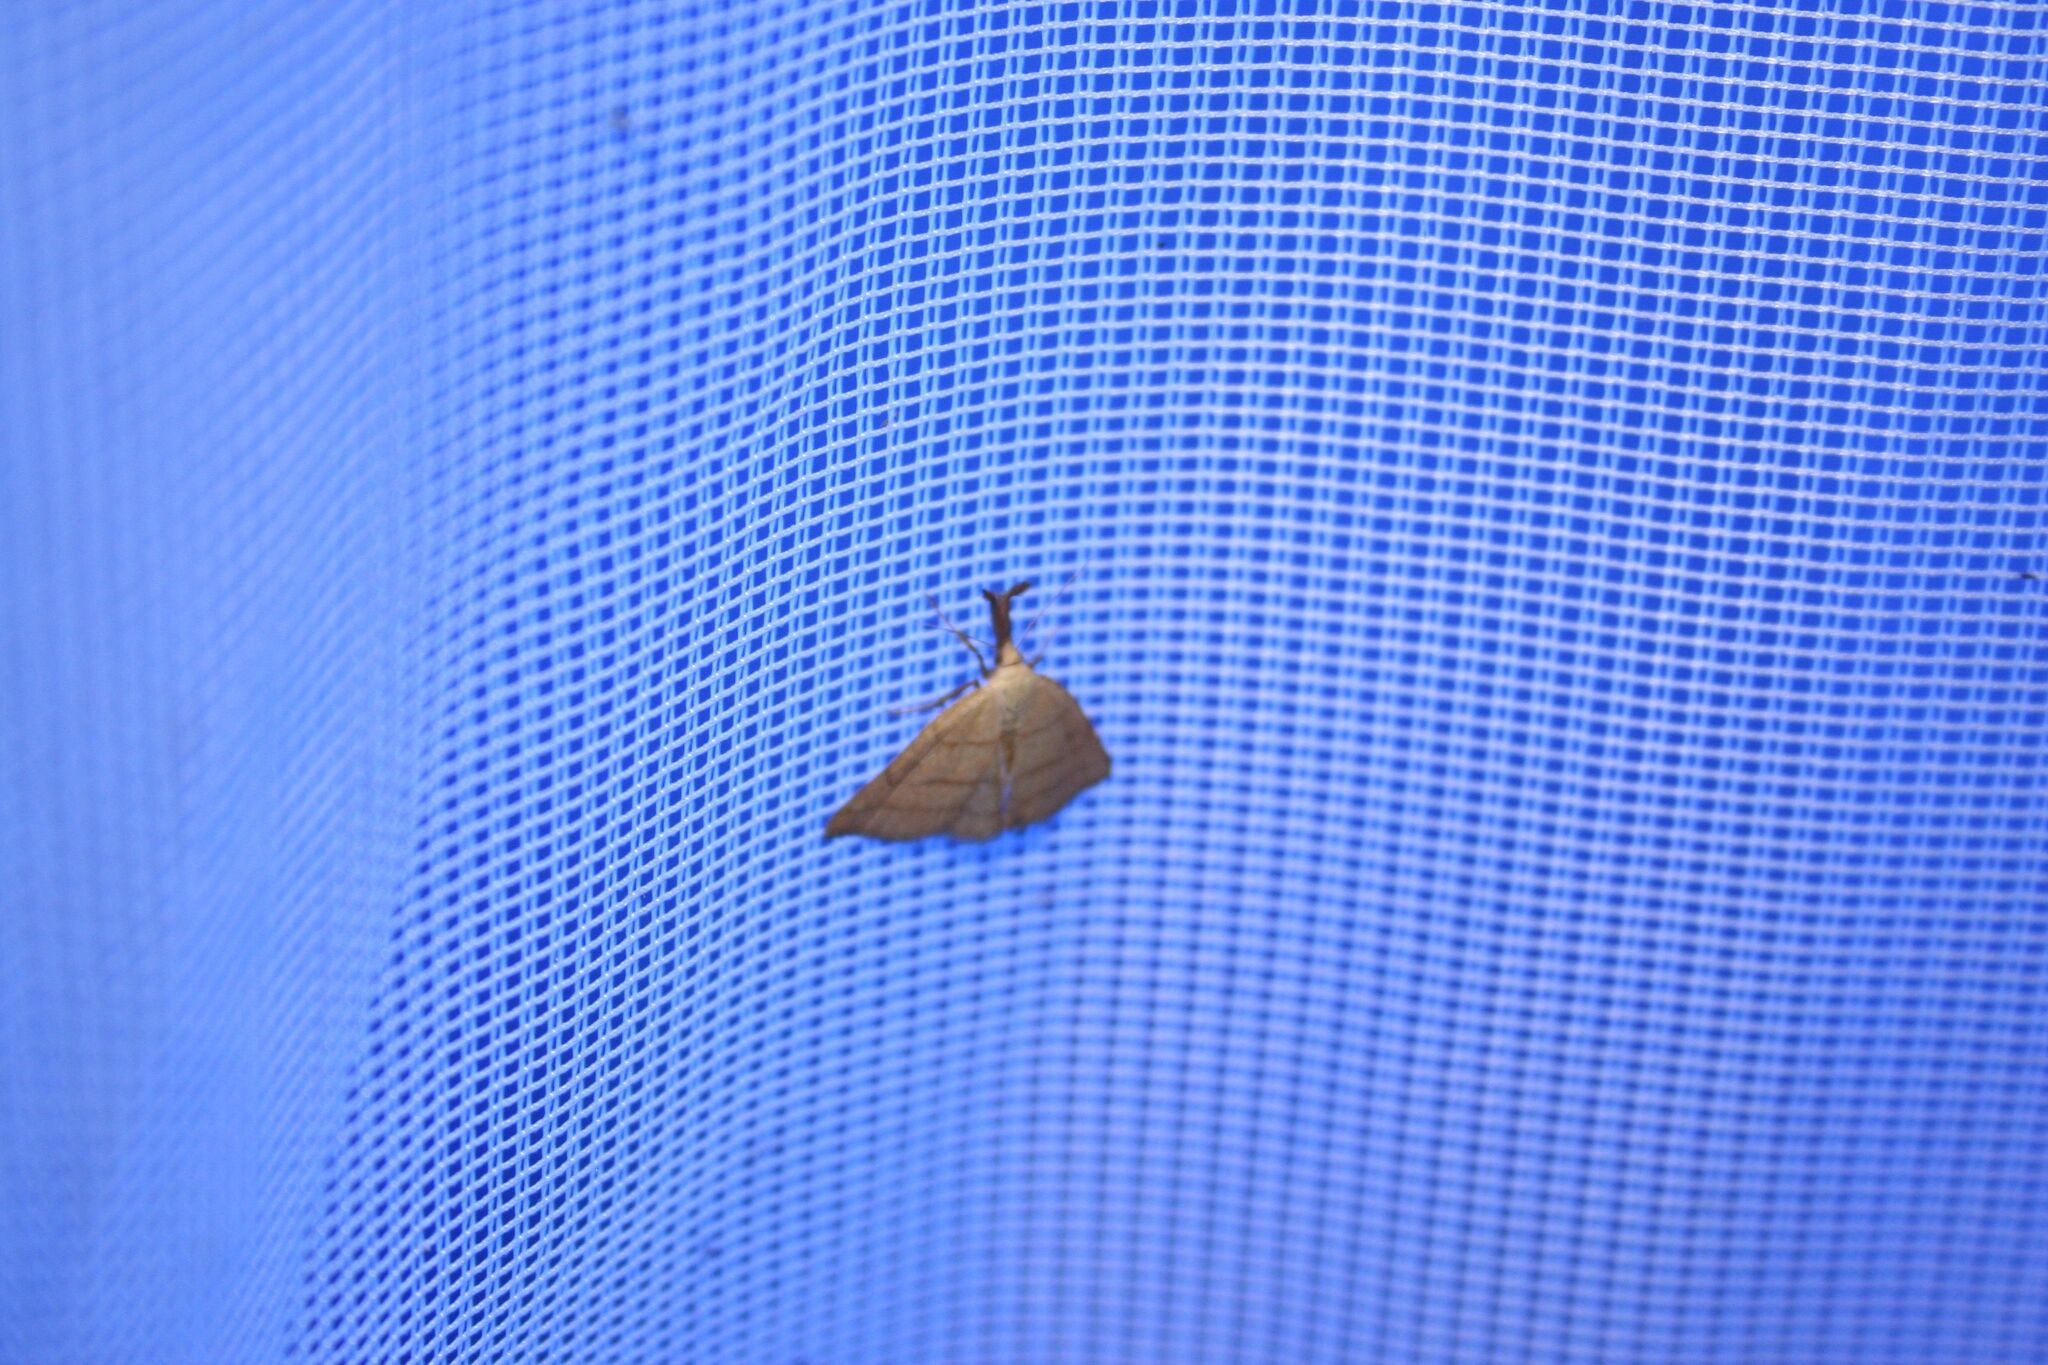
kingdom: Animalia
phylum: Arthropoda
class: Insecta
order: Lepidoptera
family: Erebidae
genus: Polypogon
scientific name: Polypogon tentacularia
